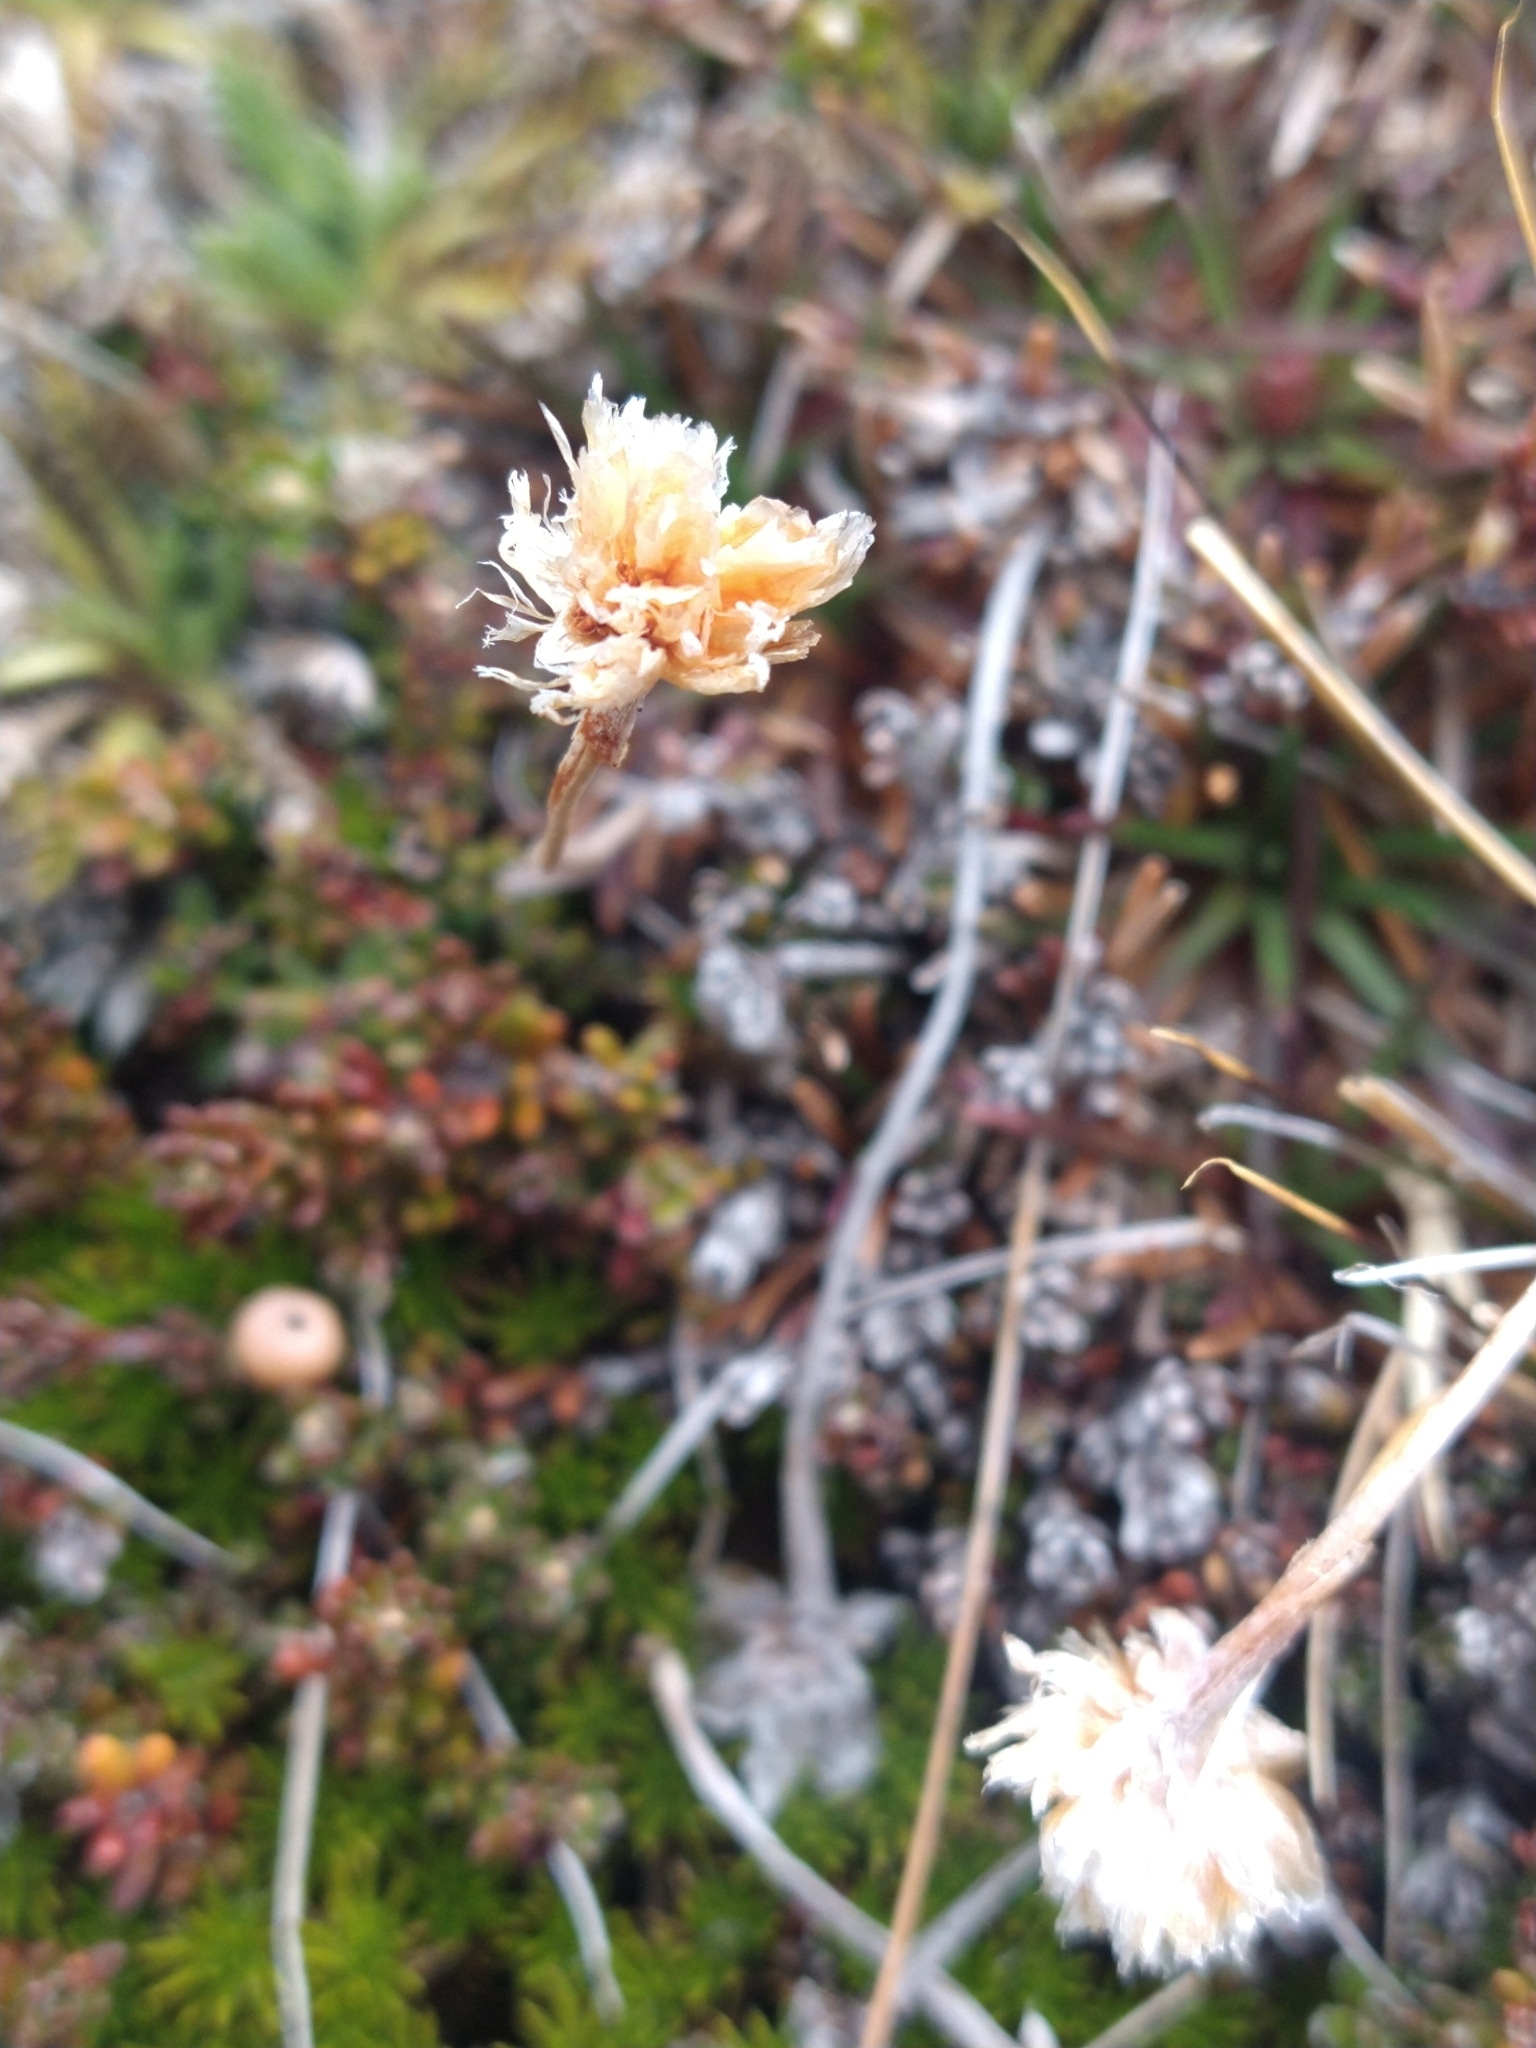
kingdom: Plantae
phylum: Tracheophyta
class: Magnoliopsida
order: Caryophyllales
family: Plumbaginaceae
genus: Armeria
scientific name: Armeria curvifolia
